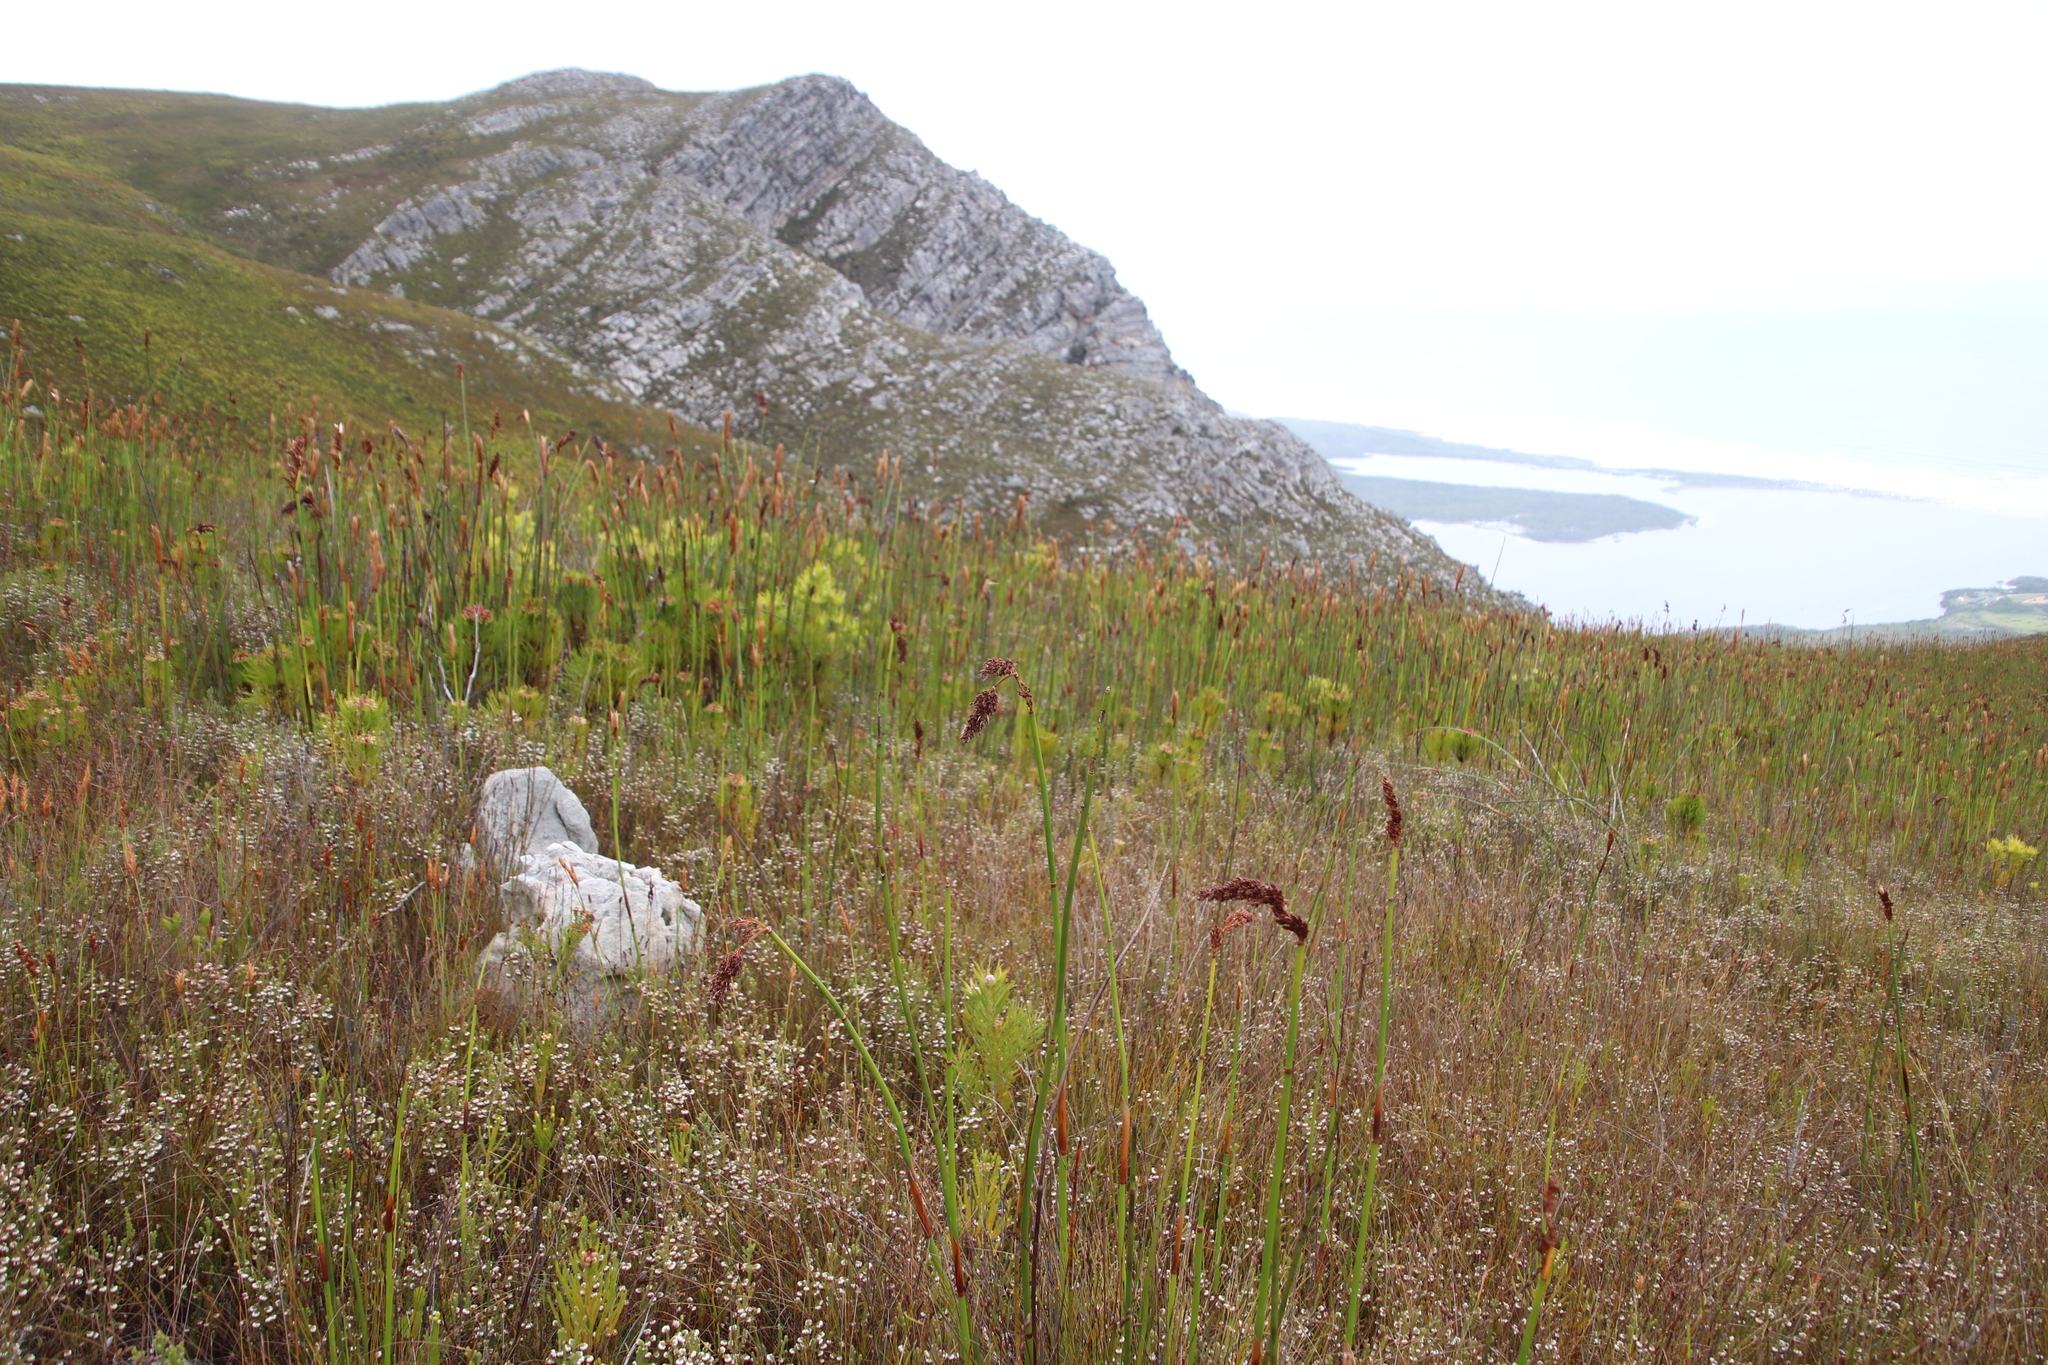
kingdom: Plantae
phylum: Tracheophyta
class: Liliopsida
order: Poales
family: Restionaceae
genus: Elegia
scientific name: Elegia mucronata
